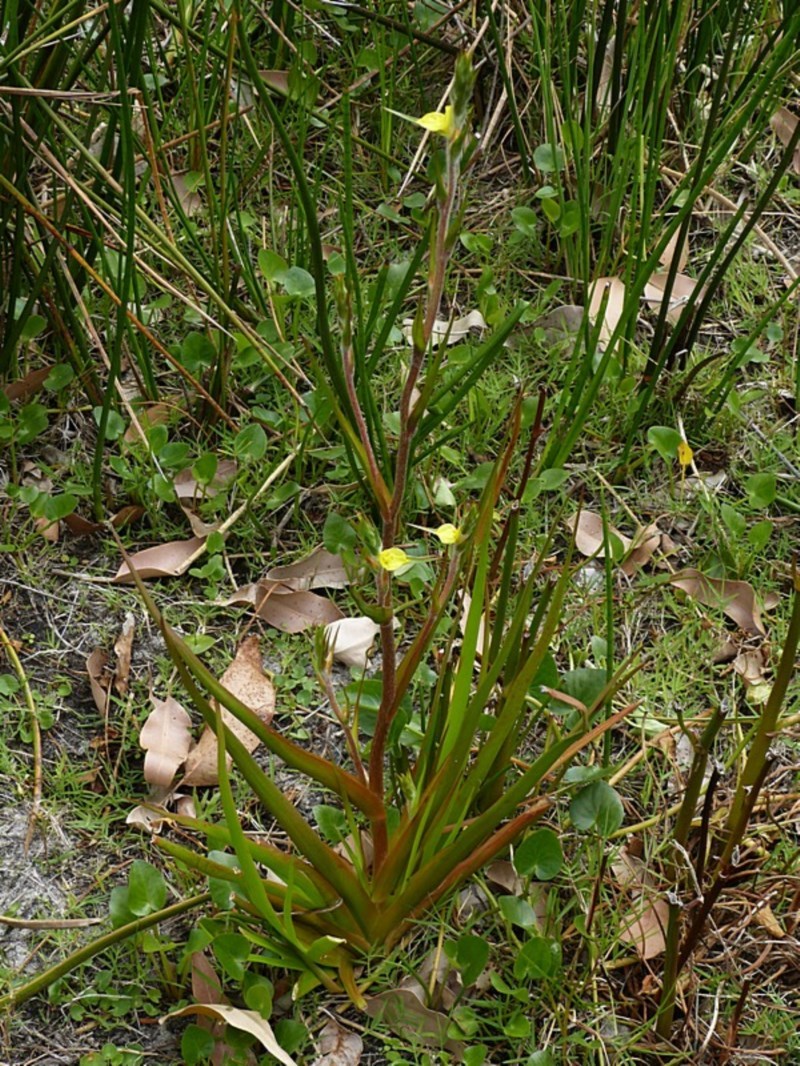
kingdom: Plantae
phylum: Tracheophyta
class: Liliopsida
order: Commelinales
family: Philydraceae
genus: Philydrum
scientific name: Philydrum lanuginosum
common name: Woolly frog's mouth
